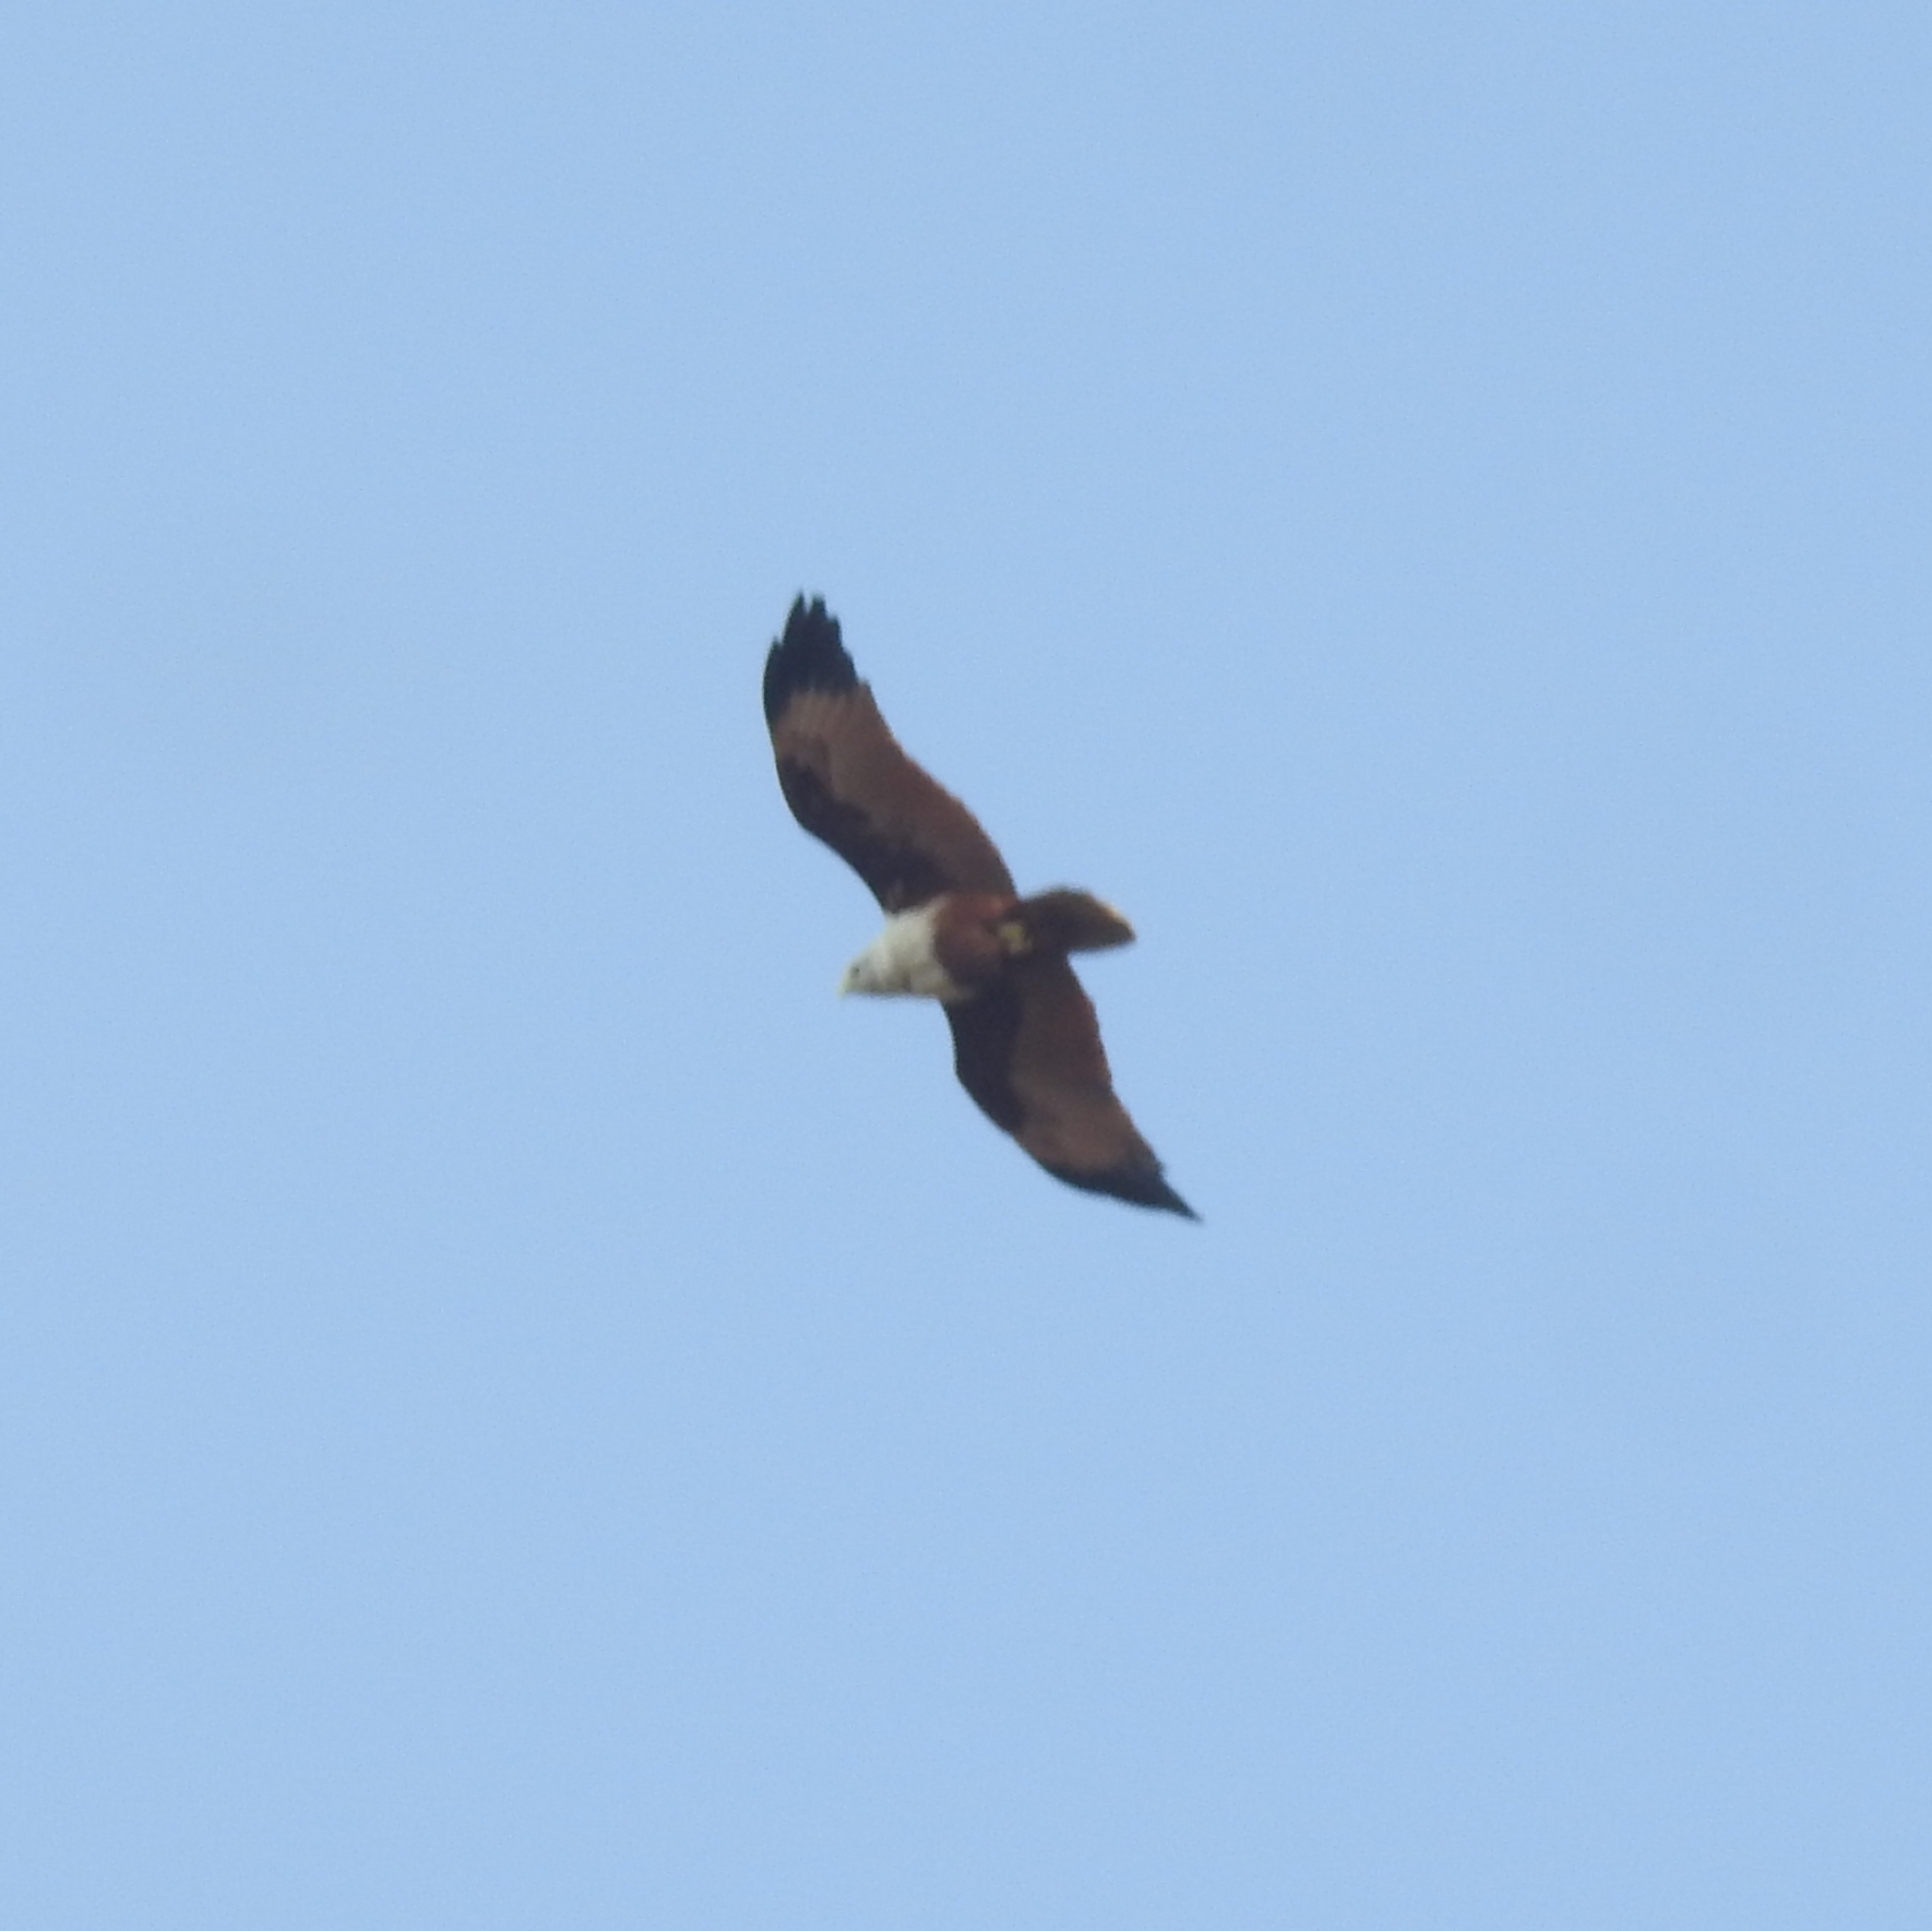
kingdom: Animalia
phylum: Chordata
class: Aves
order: Accipitriformes
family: Accipitridae
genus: Haliastur
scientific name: Haliastur indus
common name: Brahminy kite
